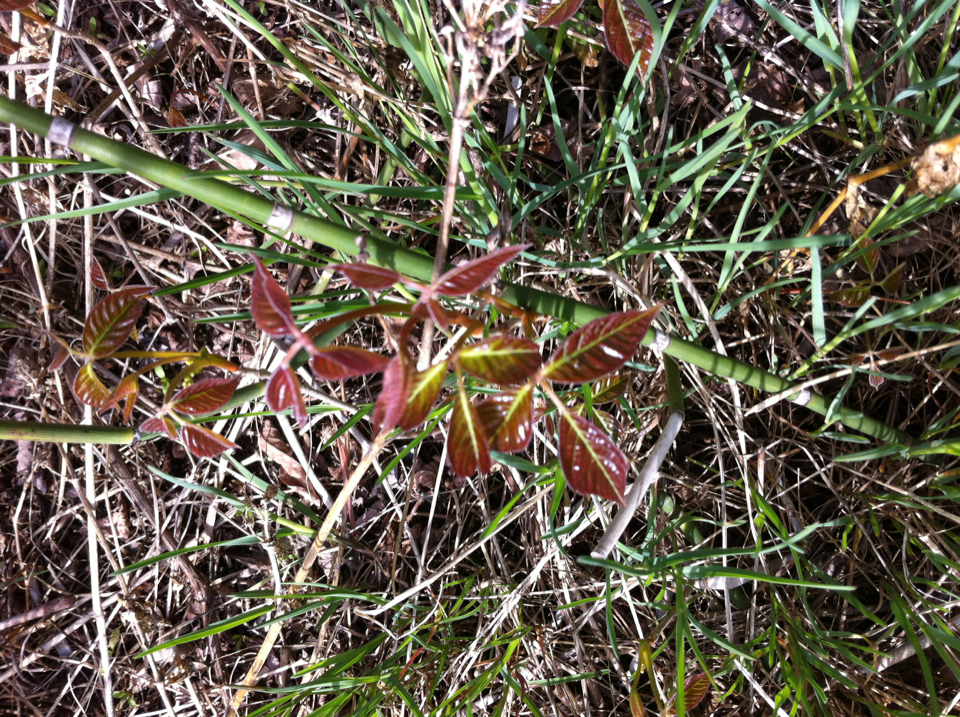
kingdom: Plantae
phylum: Tracheophyta
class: Magnoliopsida
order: Sapindales
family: Anacardiaceae
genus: Toxicodendron
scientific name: Toxicodendron radicans
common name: Poison ivy
